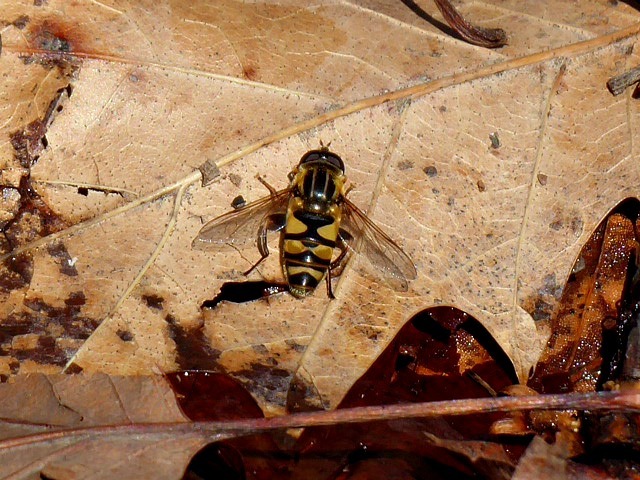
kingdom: Animalia
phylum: Arthropoda
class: Insecta
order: Diptera
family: Syrphidae
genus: Helophilus
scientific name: Helophilus fasciatus
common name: Narrow-headed marsh fly
